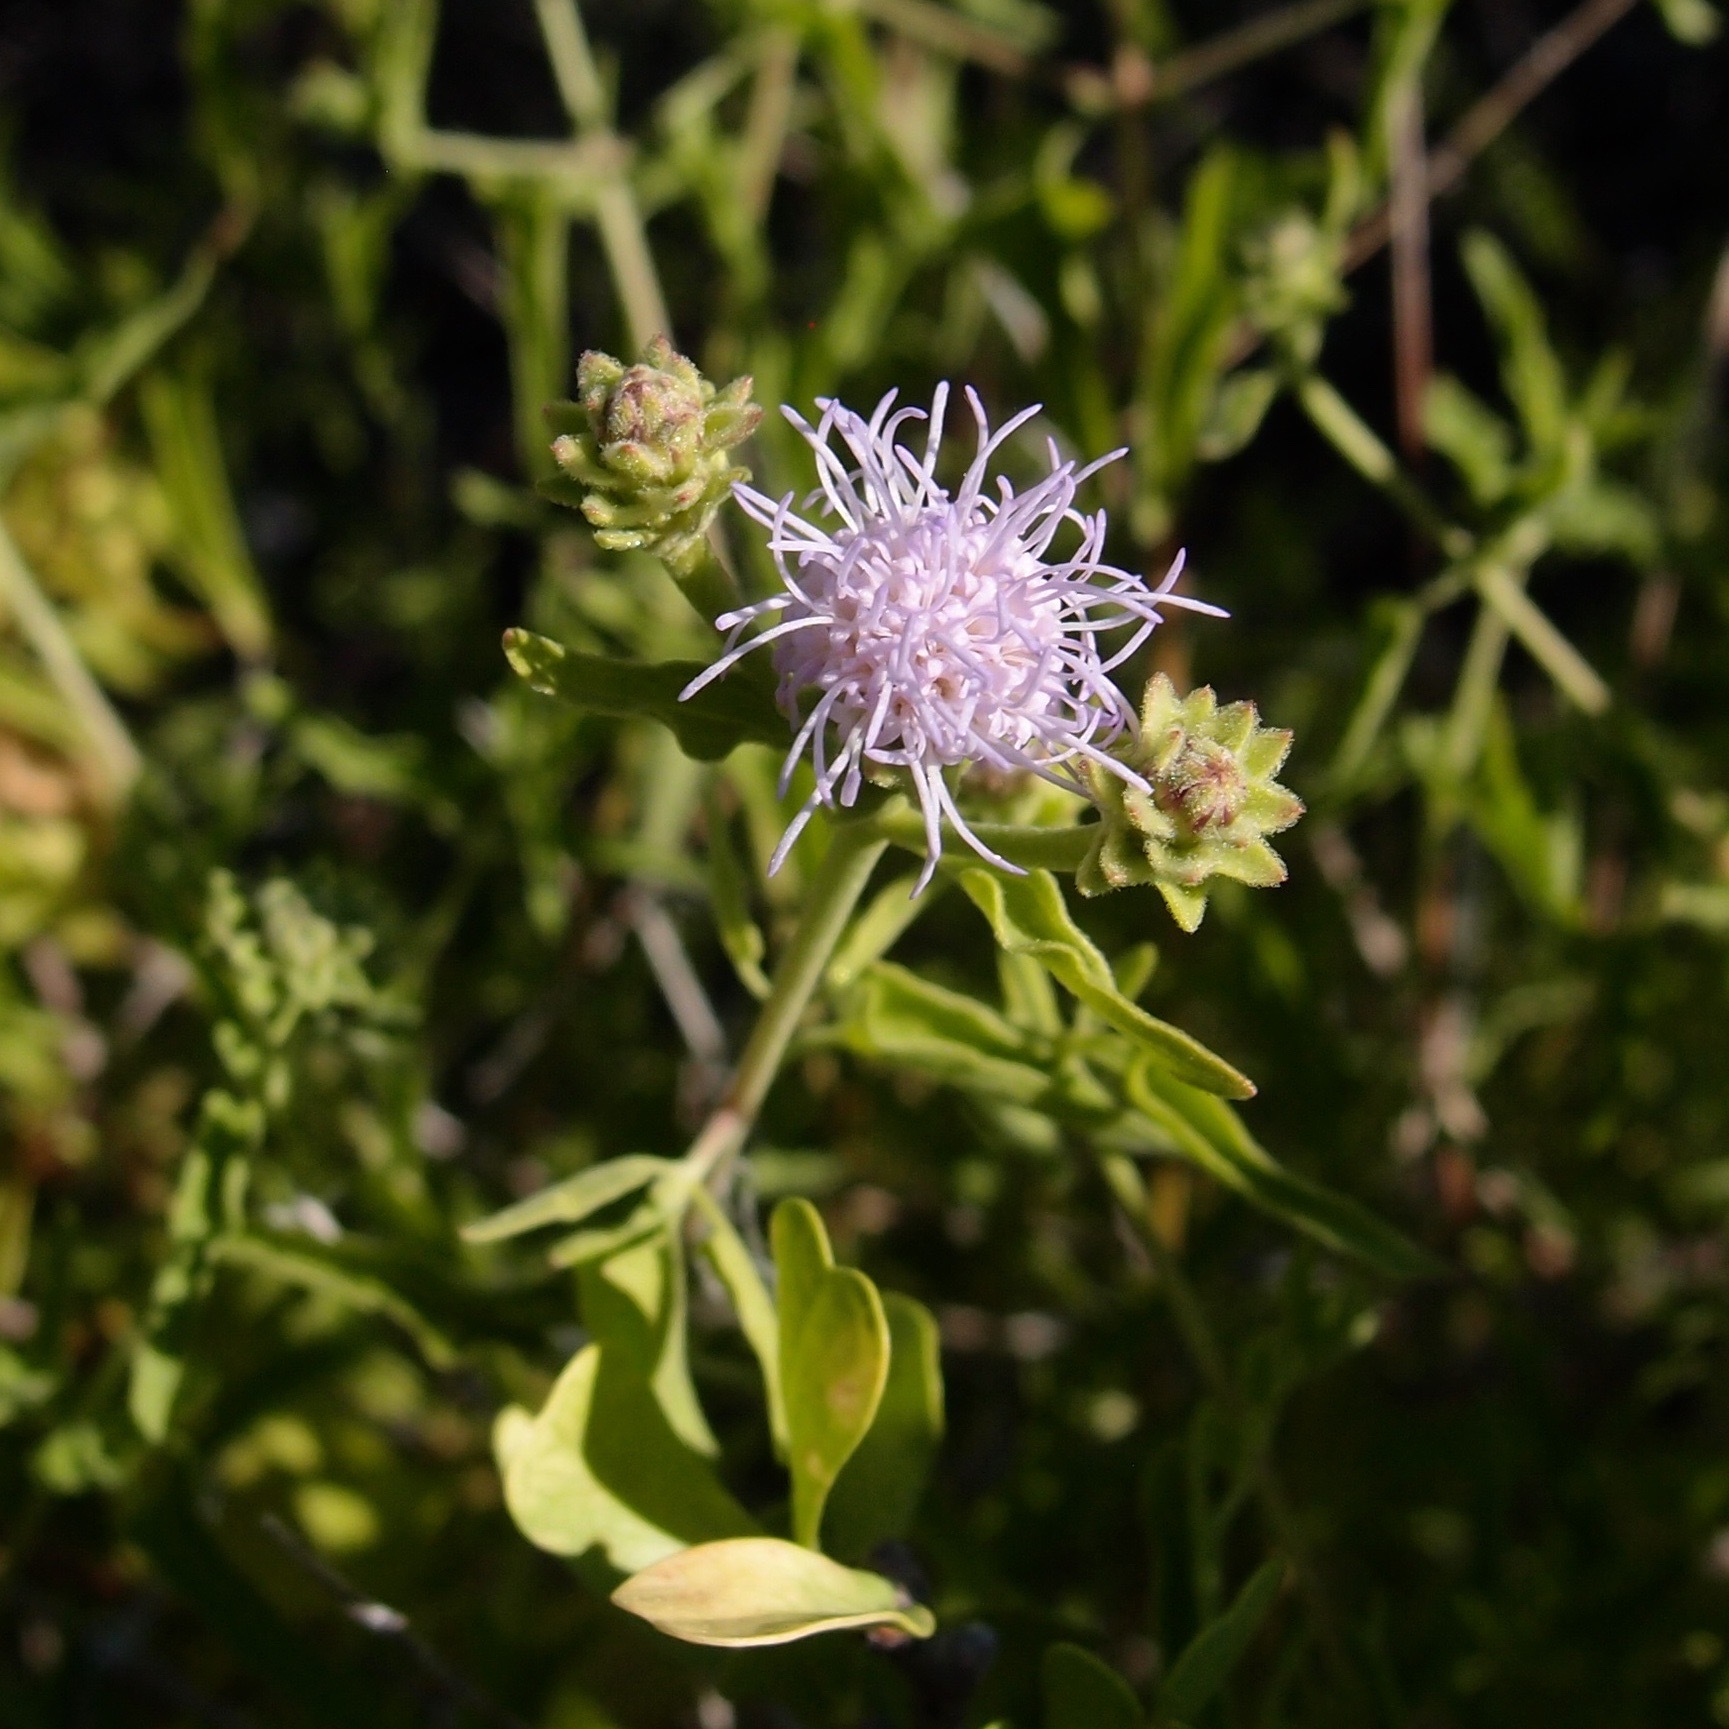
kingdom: Plantae
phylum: Tracheophyta
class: Magnoliopsida
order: Asterales
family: Asteraceae
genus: Chromolaena
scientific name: Chromolaena sagittata
